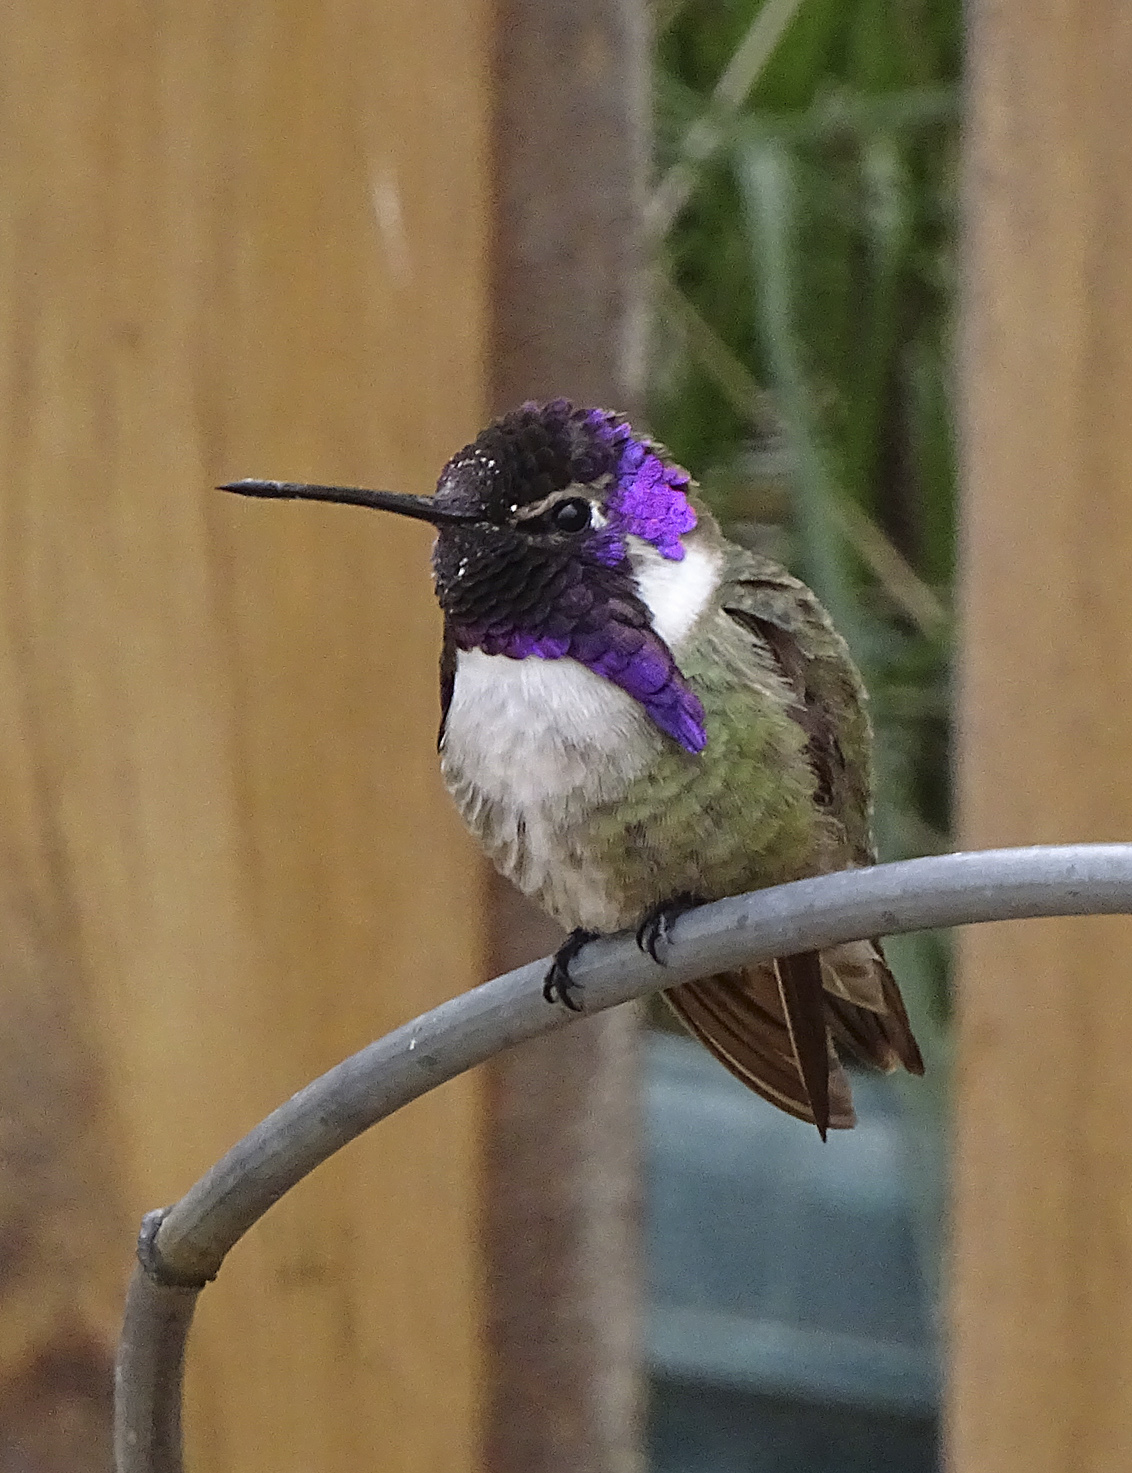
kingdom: Animalia
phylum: Chordata
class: Aves
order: Apodiformes
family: Trochilidae
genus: Calypte
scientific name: Calypte costae
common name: Costa's hummingbird
